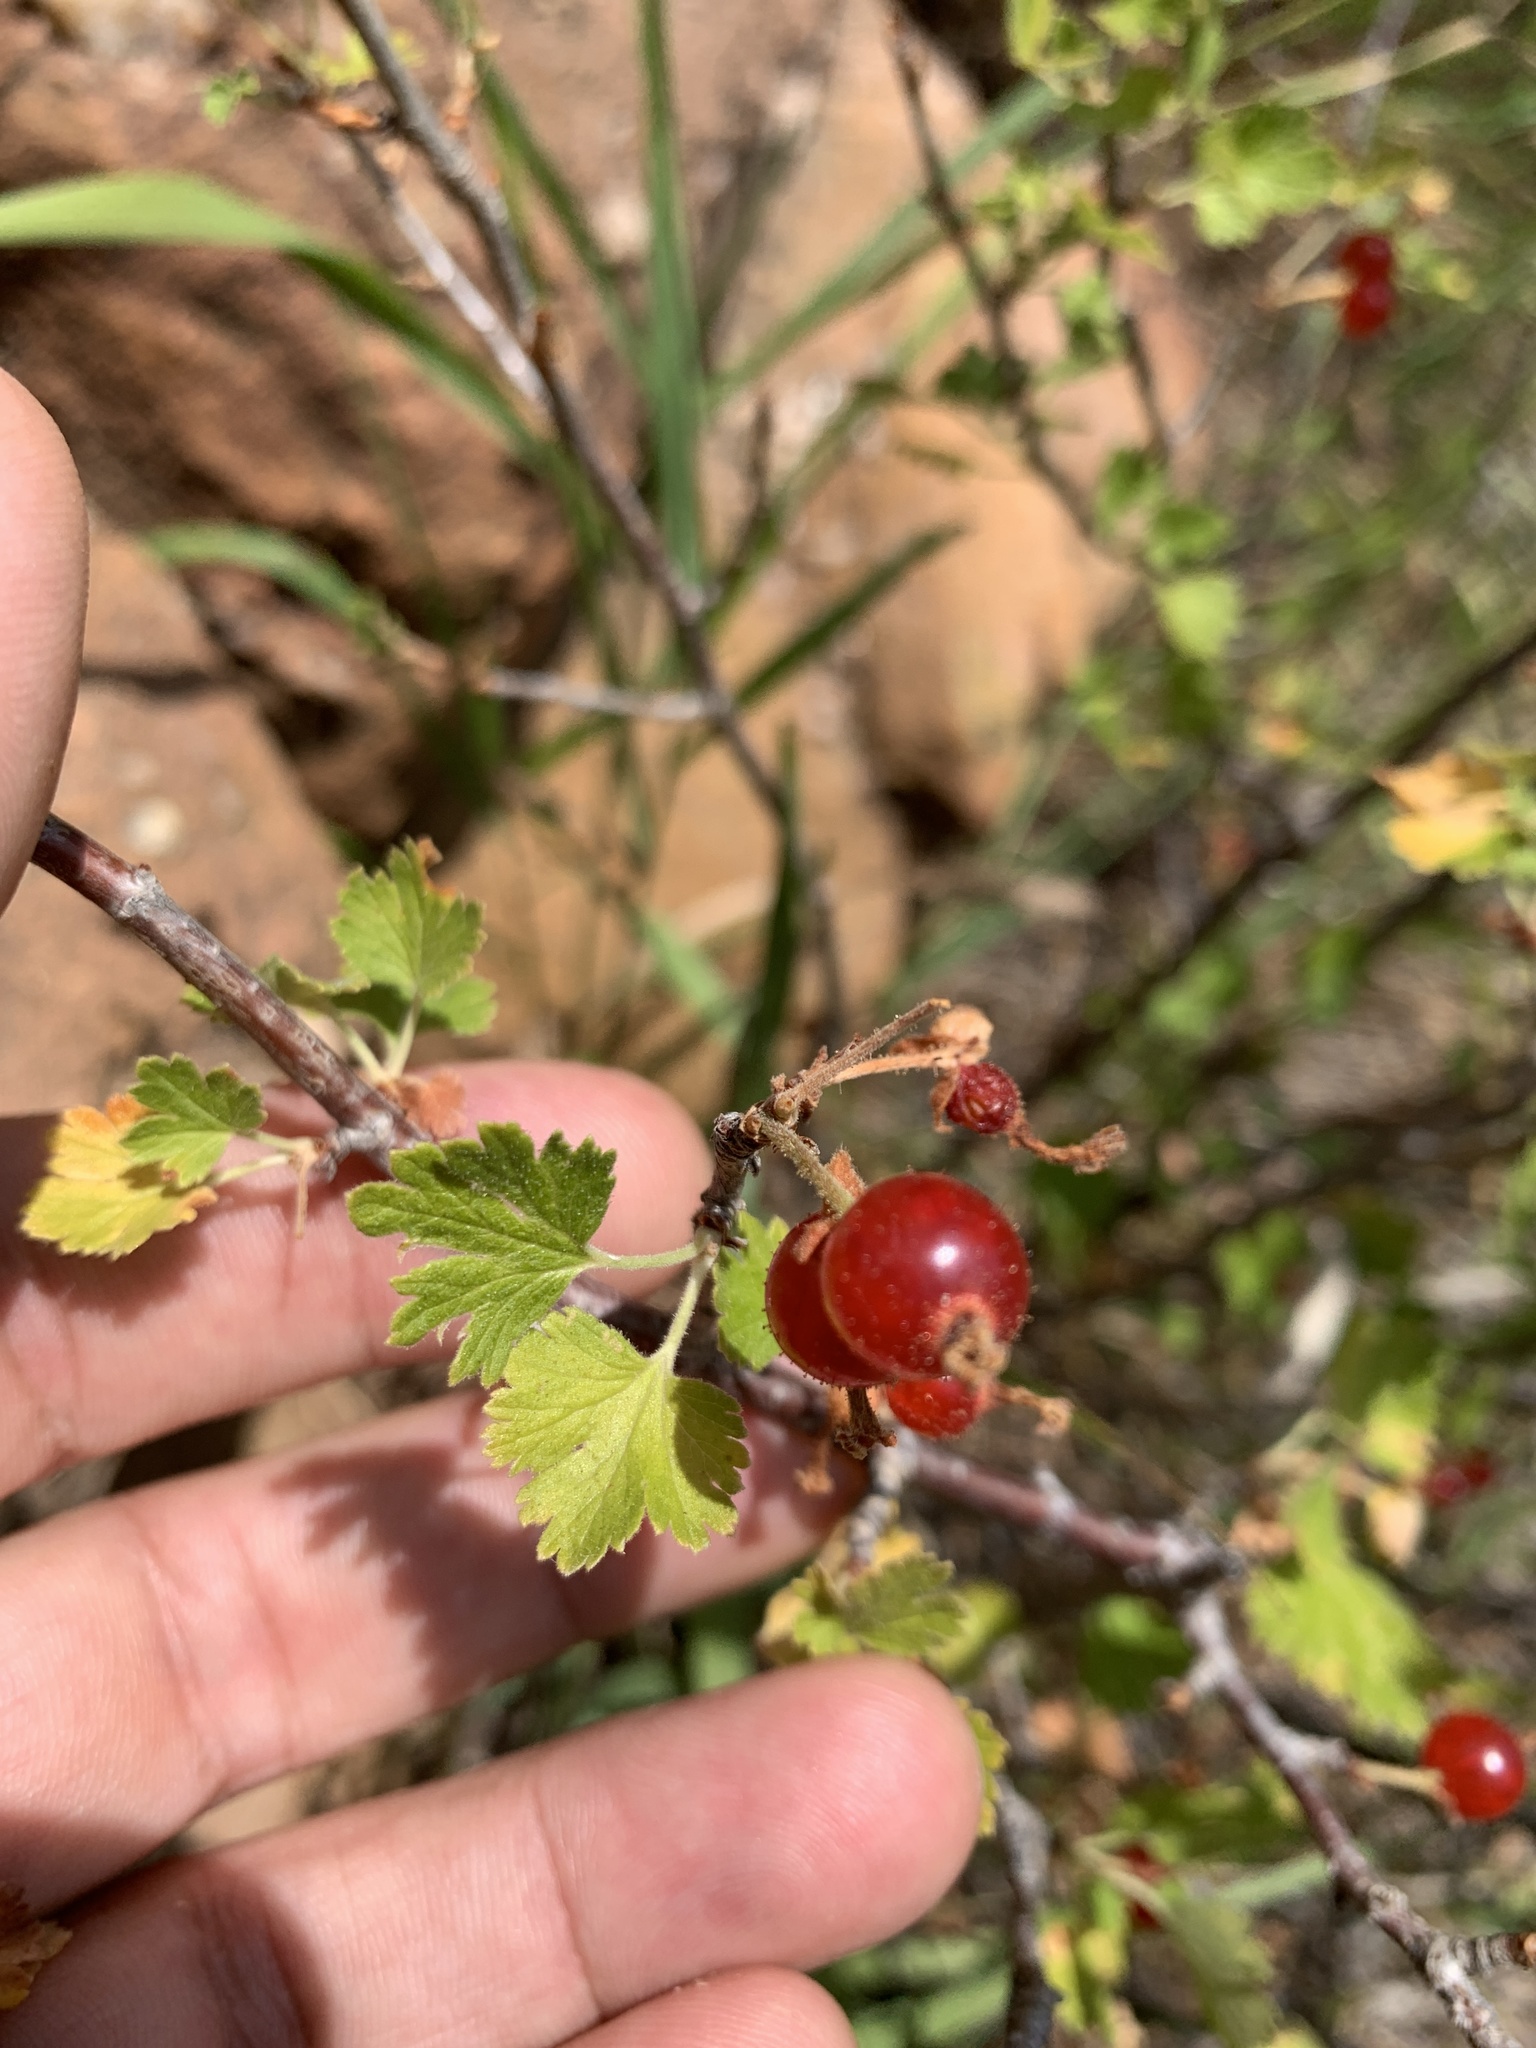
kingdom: Plantae
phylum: Tracheophyta
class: Magnoliopsida
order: Saxifragales
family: Grossulariaceae
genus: Ribes
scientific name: Ribes cereum
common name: Wax currant
